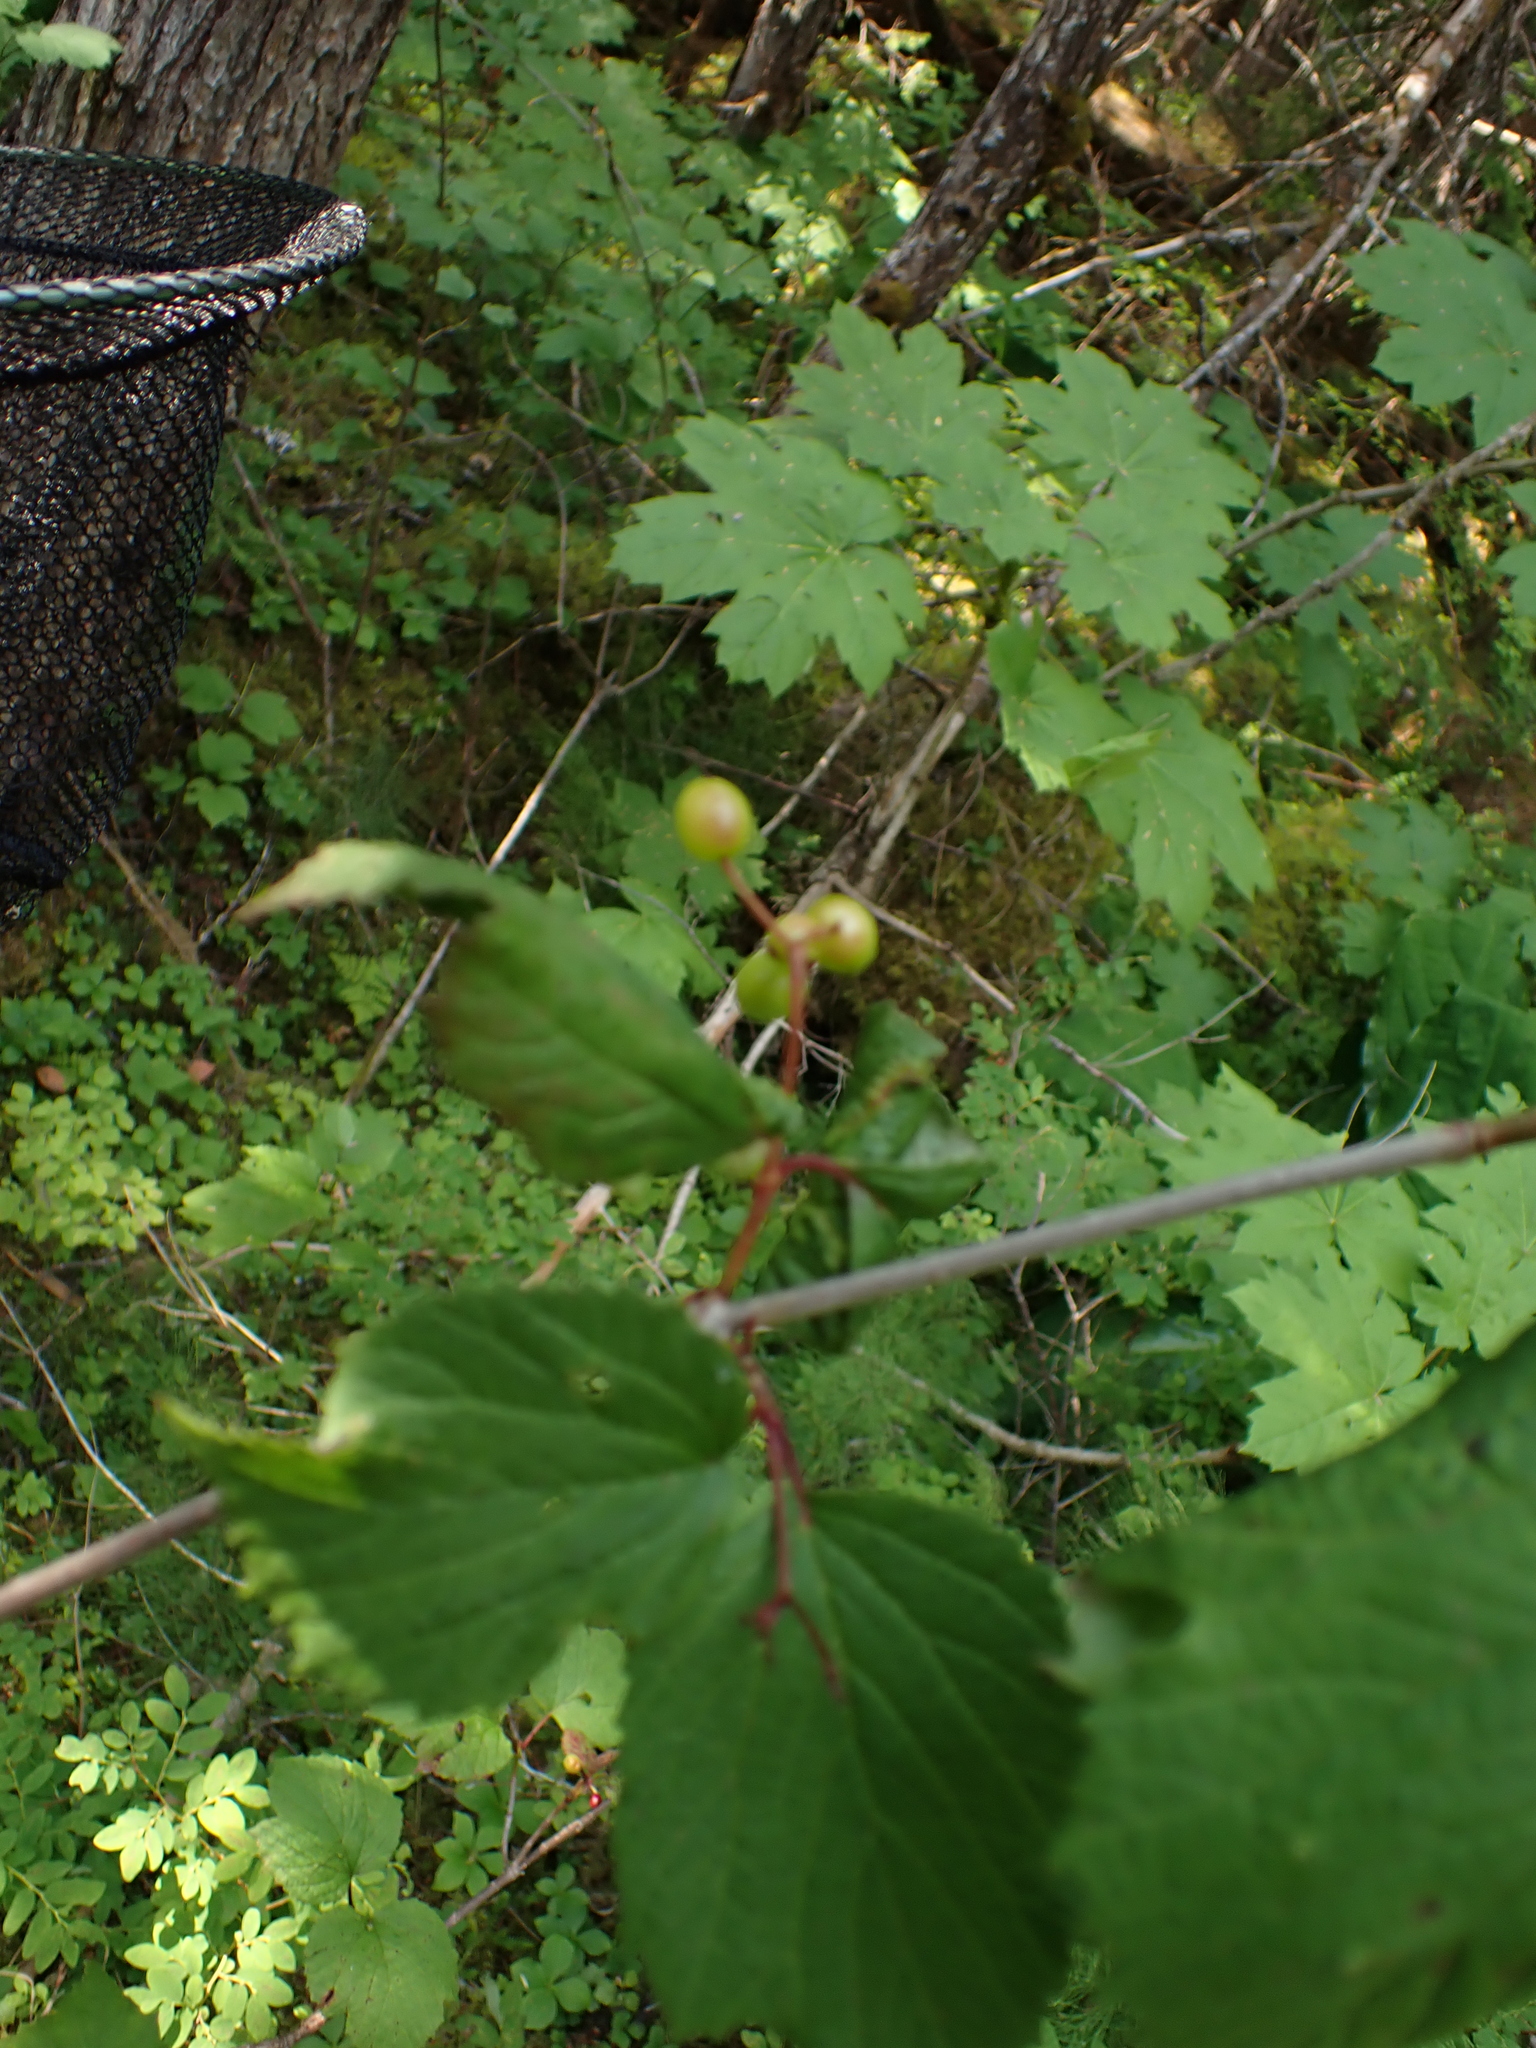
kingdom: Plantae
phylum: Tracheophyta
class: Magnoliopsida
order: Dipsacales
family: Viburnaceae
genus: Viburnum
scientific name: Viburnum edule
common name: Mooseberry
